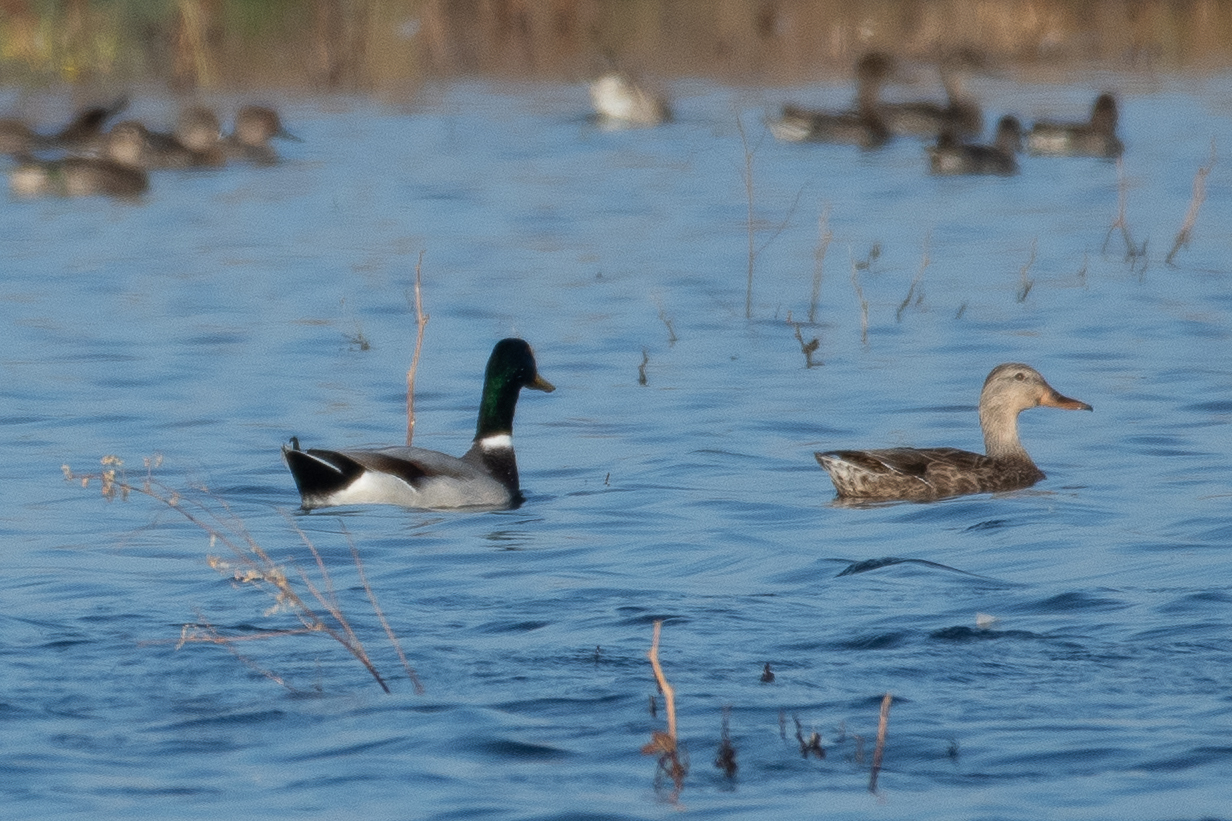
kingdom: Animalia
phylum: Chordata
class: Aves
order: Anseriformes
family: Anatidae
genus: Anas
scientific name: Anas platyrhynchos
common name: Mallard
